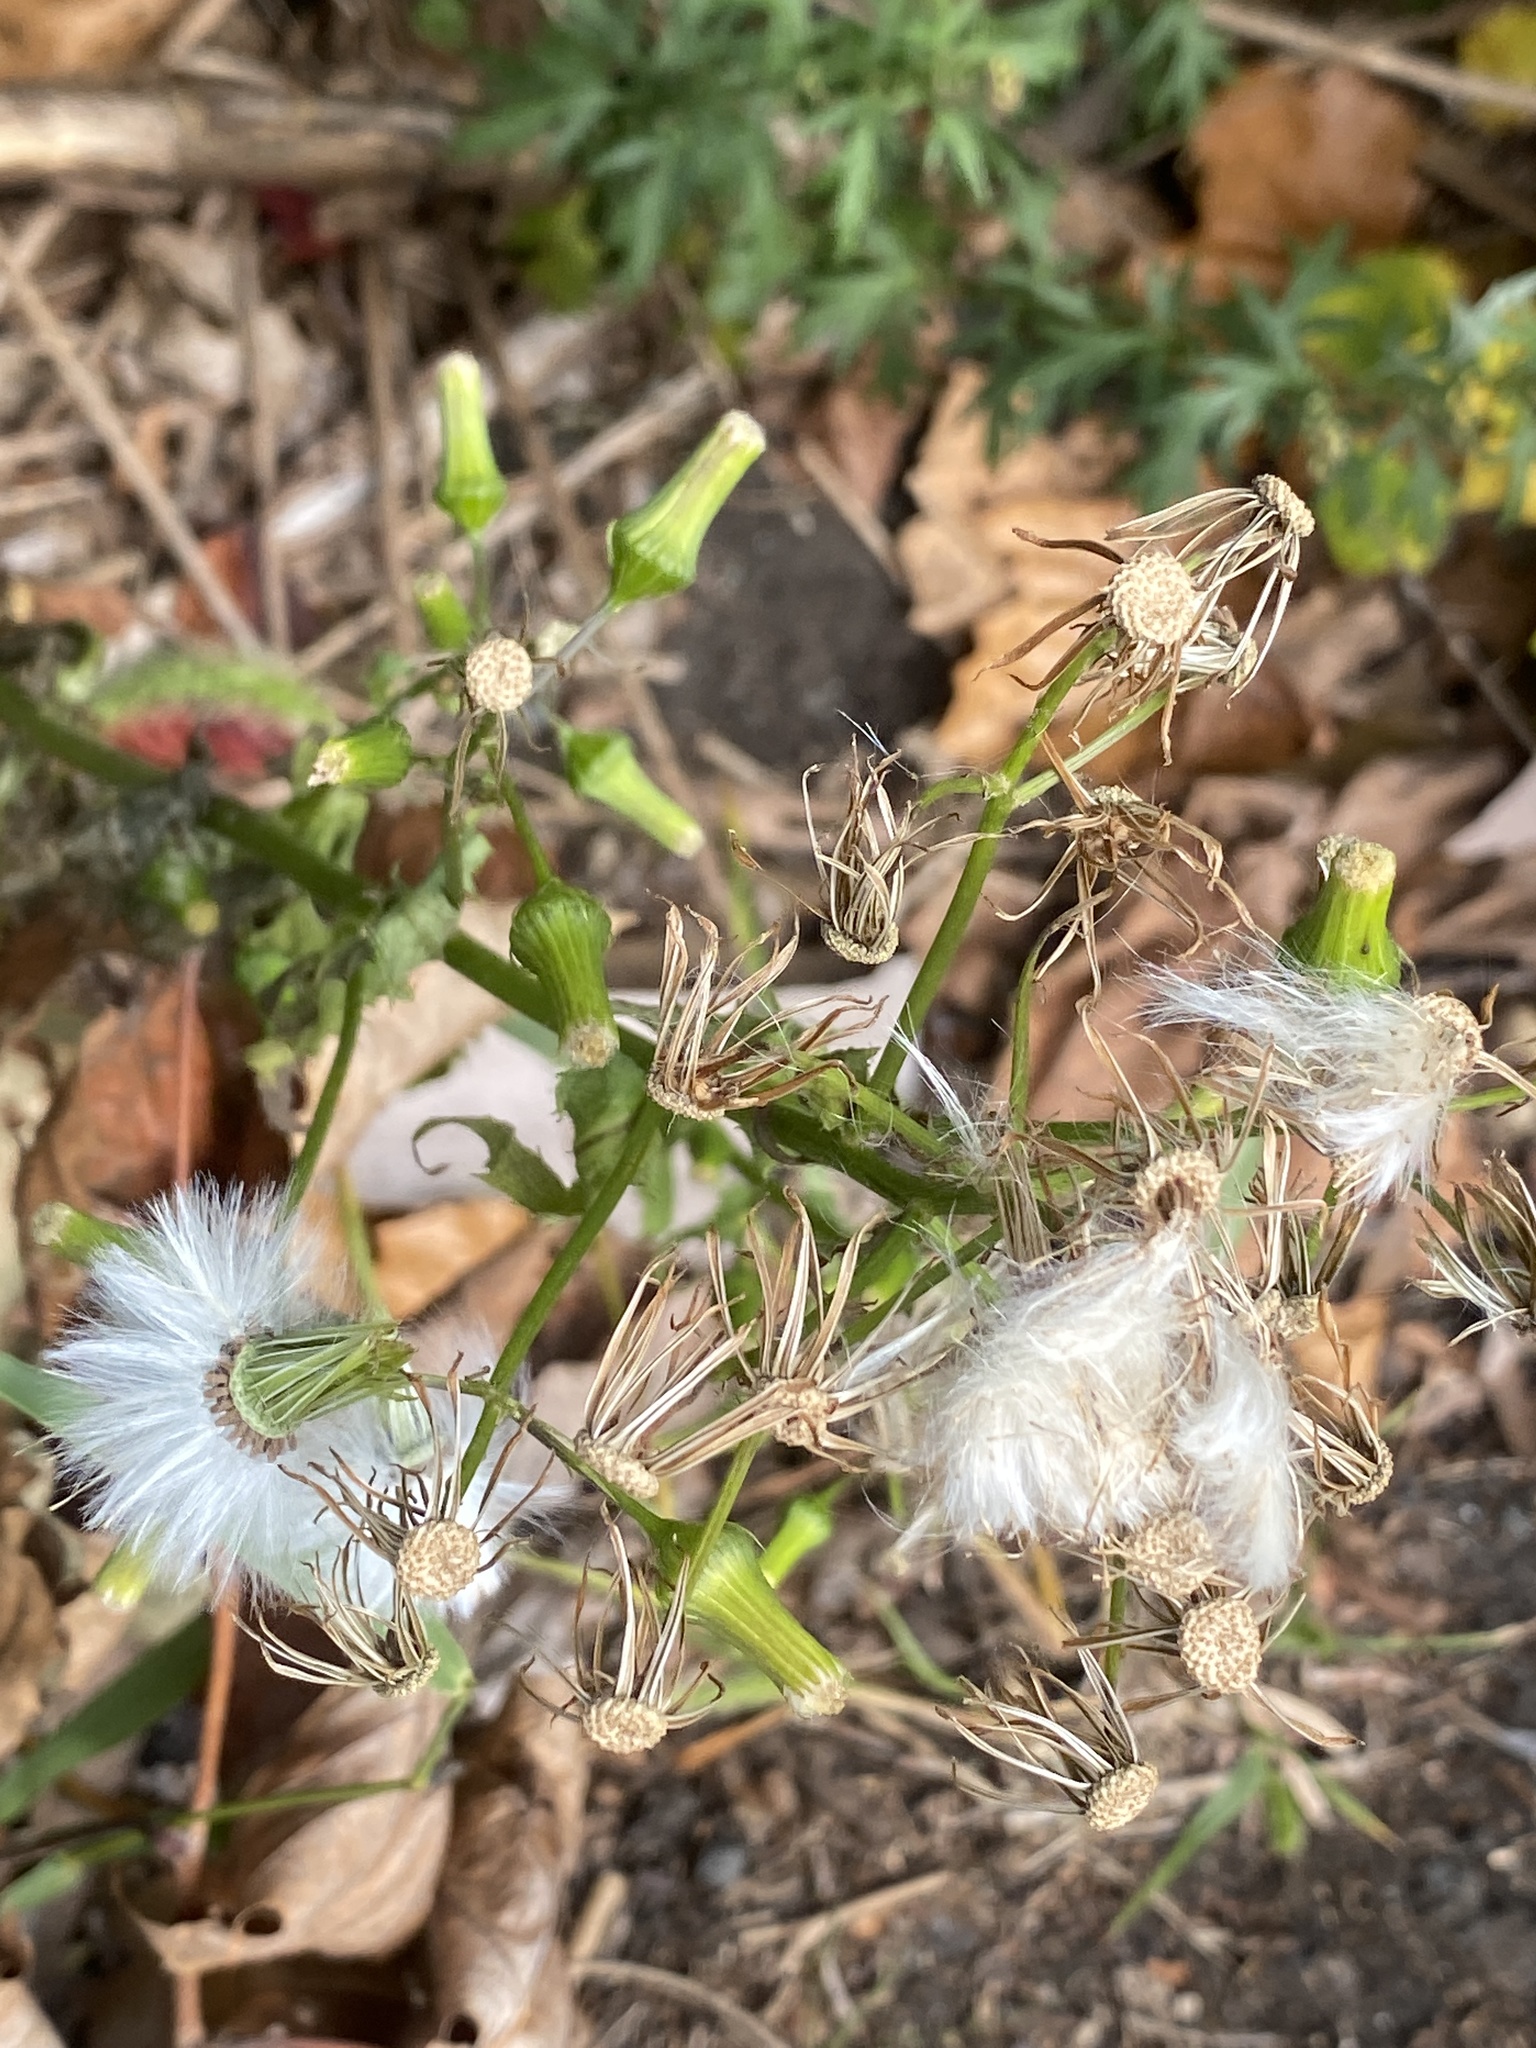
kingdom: Plantae
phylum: Tracheophyta
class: Magnoliopsida
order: Asterales
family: Asteraceae
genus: Erechtites
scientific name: Erechtites hieraciifolius
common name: American burnweed
